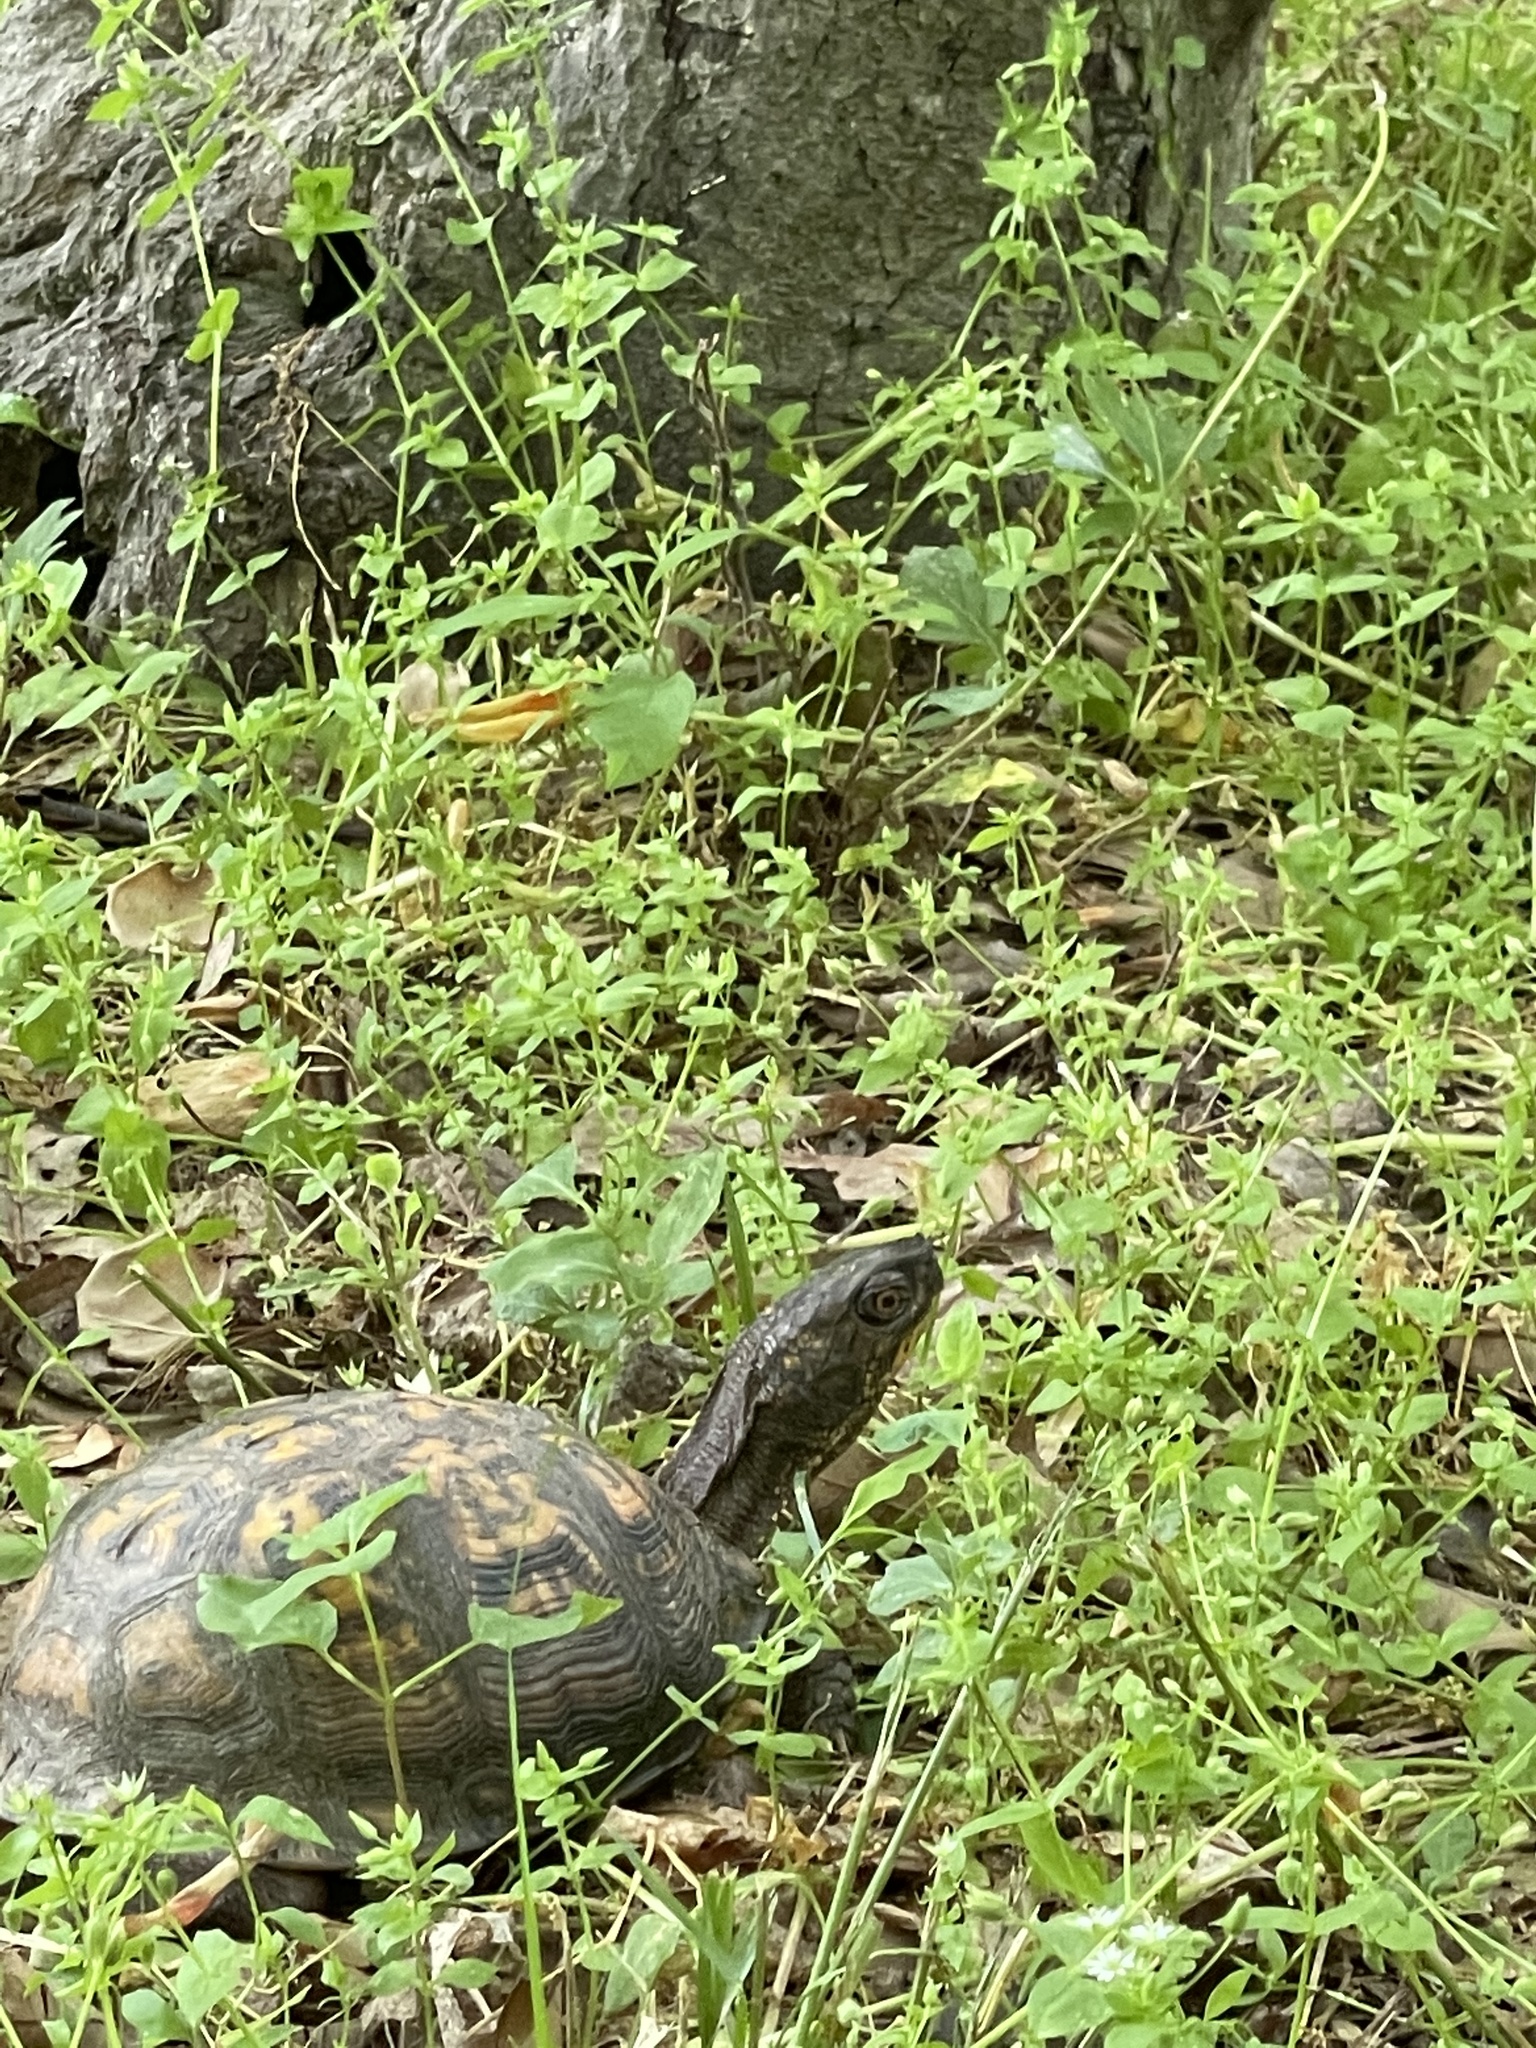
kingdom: Animalia
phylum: Chordata
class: Testudines
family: Emydidae
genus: Terrapene
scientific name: Terrapene carolina
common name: Common box turtle
